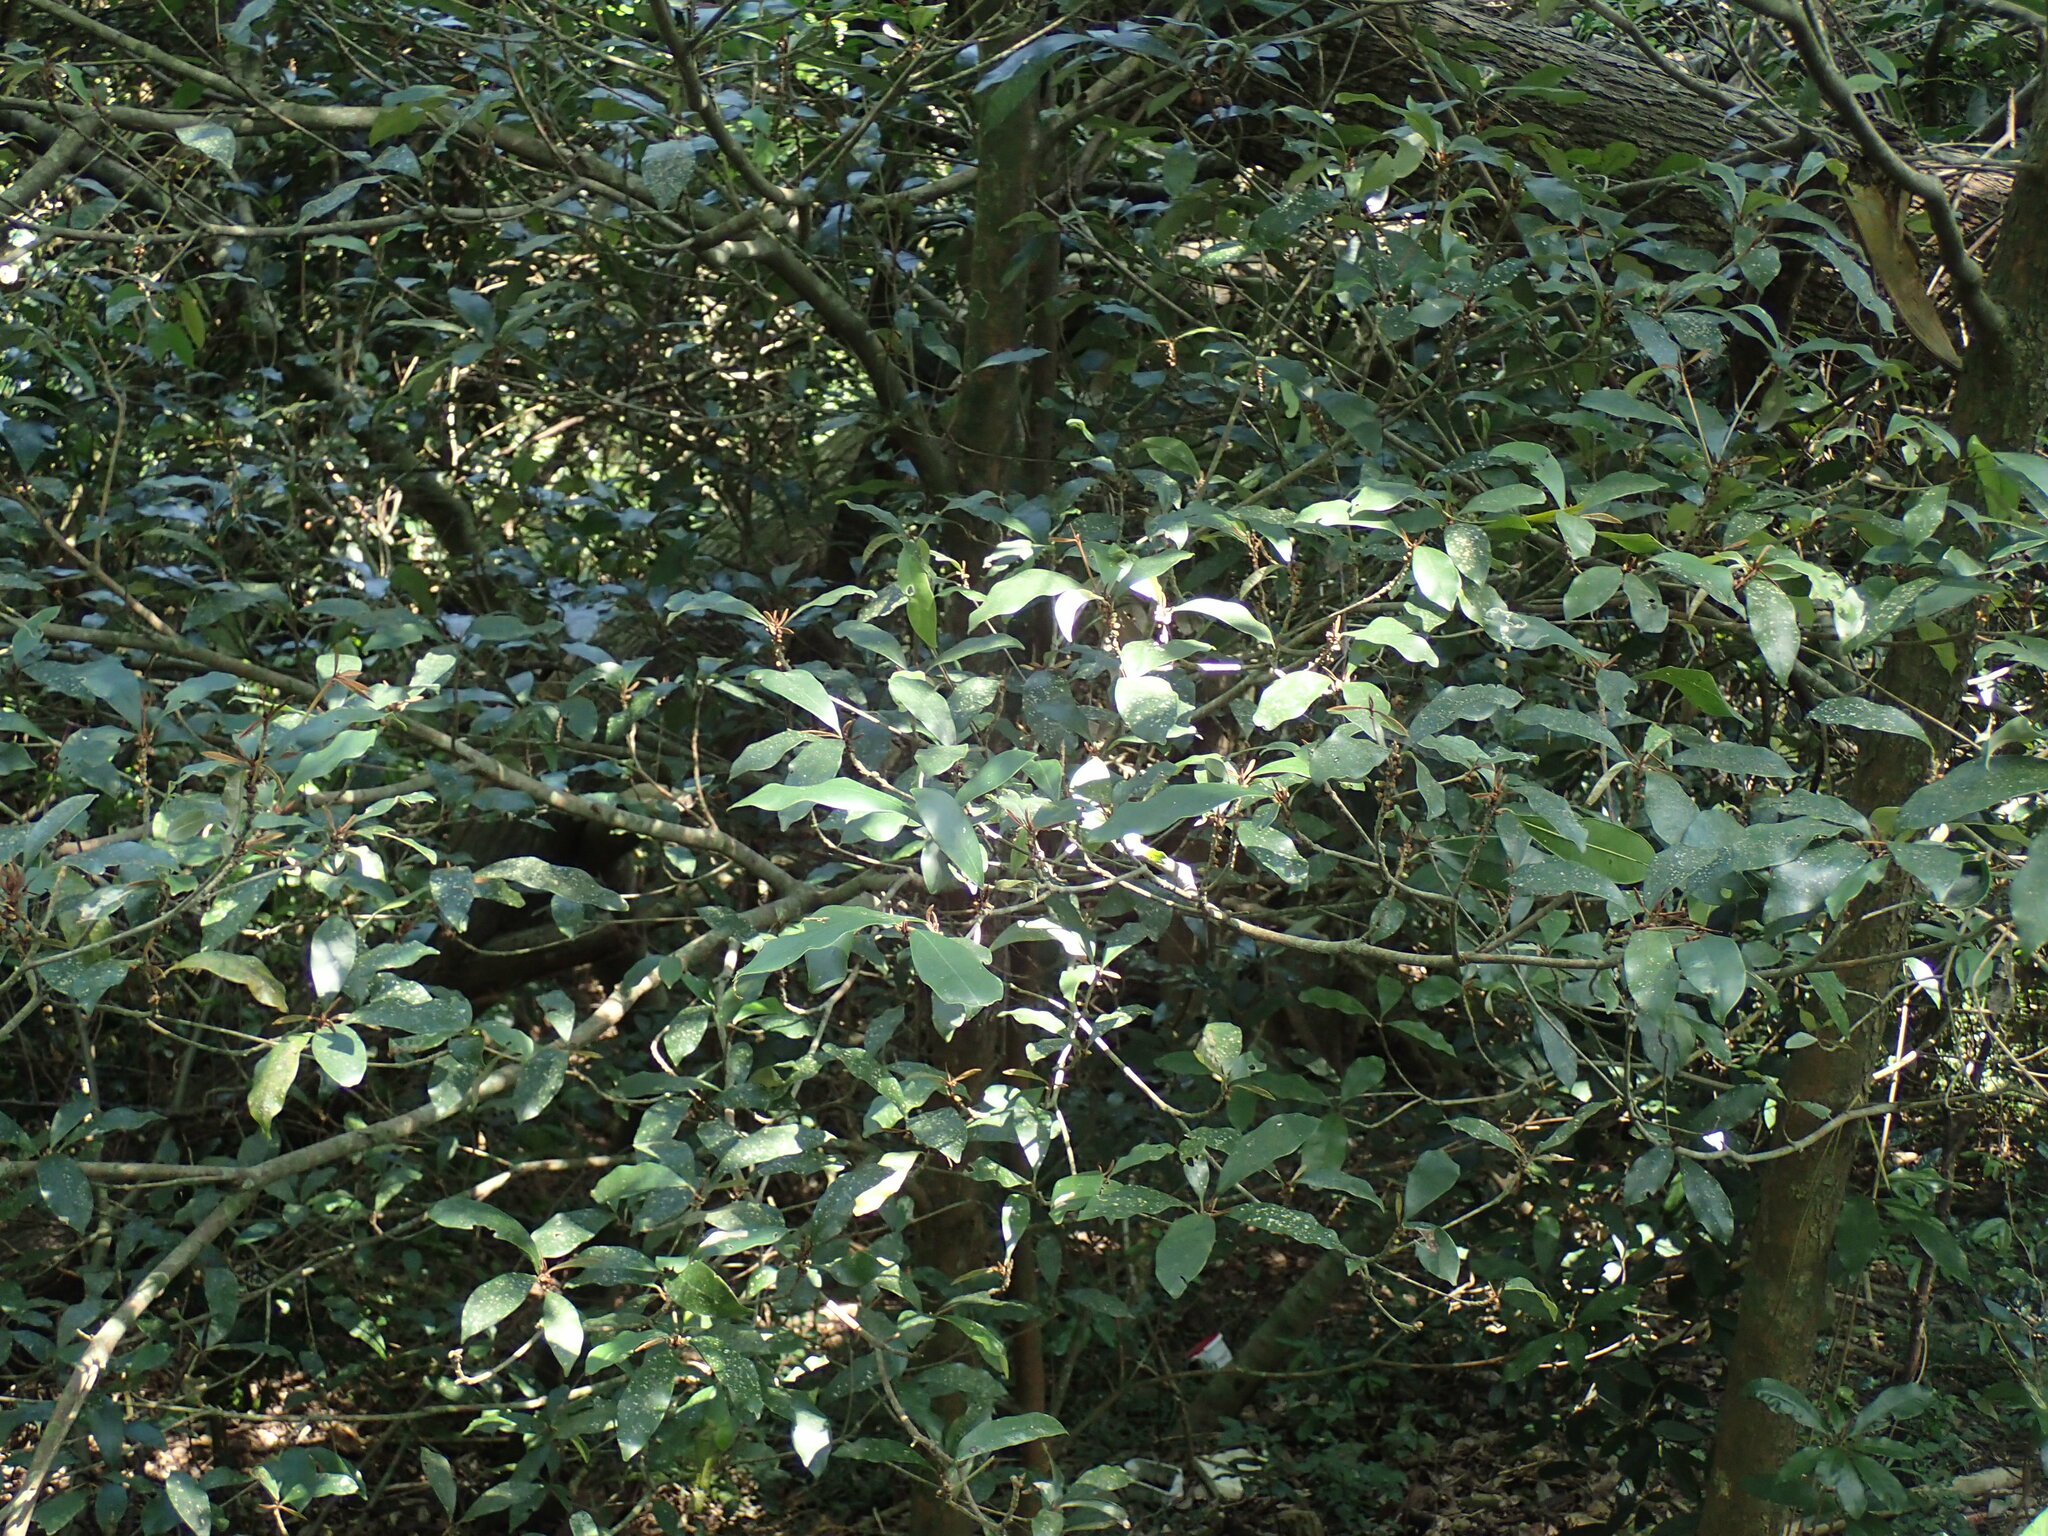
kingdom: Plantae
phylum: Tracheophyta
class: Magnoliopsida
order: Ericales
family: Sapotaceae
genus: Englerophytum
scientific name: Englerophytum natalense
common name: Silver-leaved milkplum
